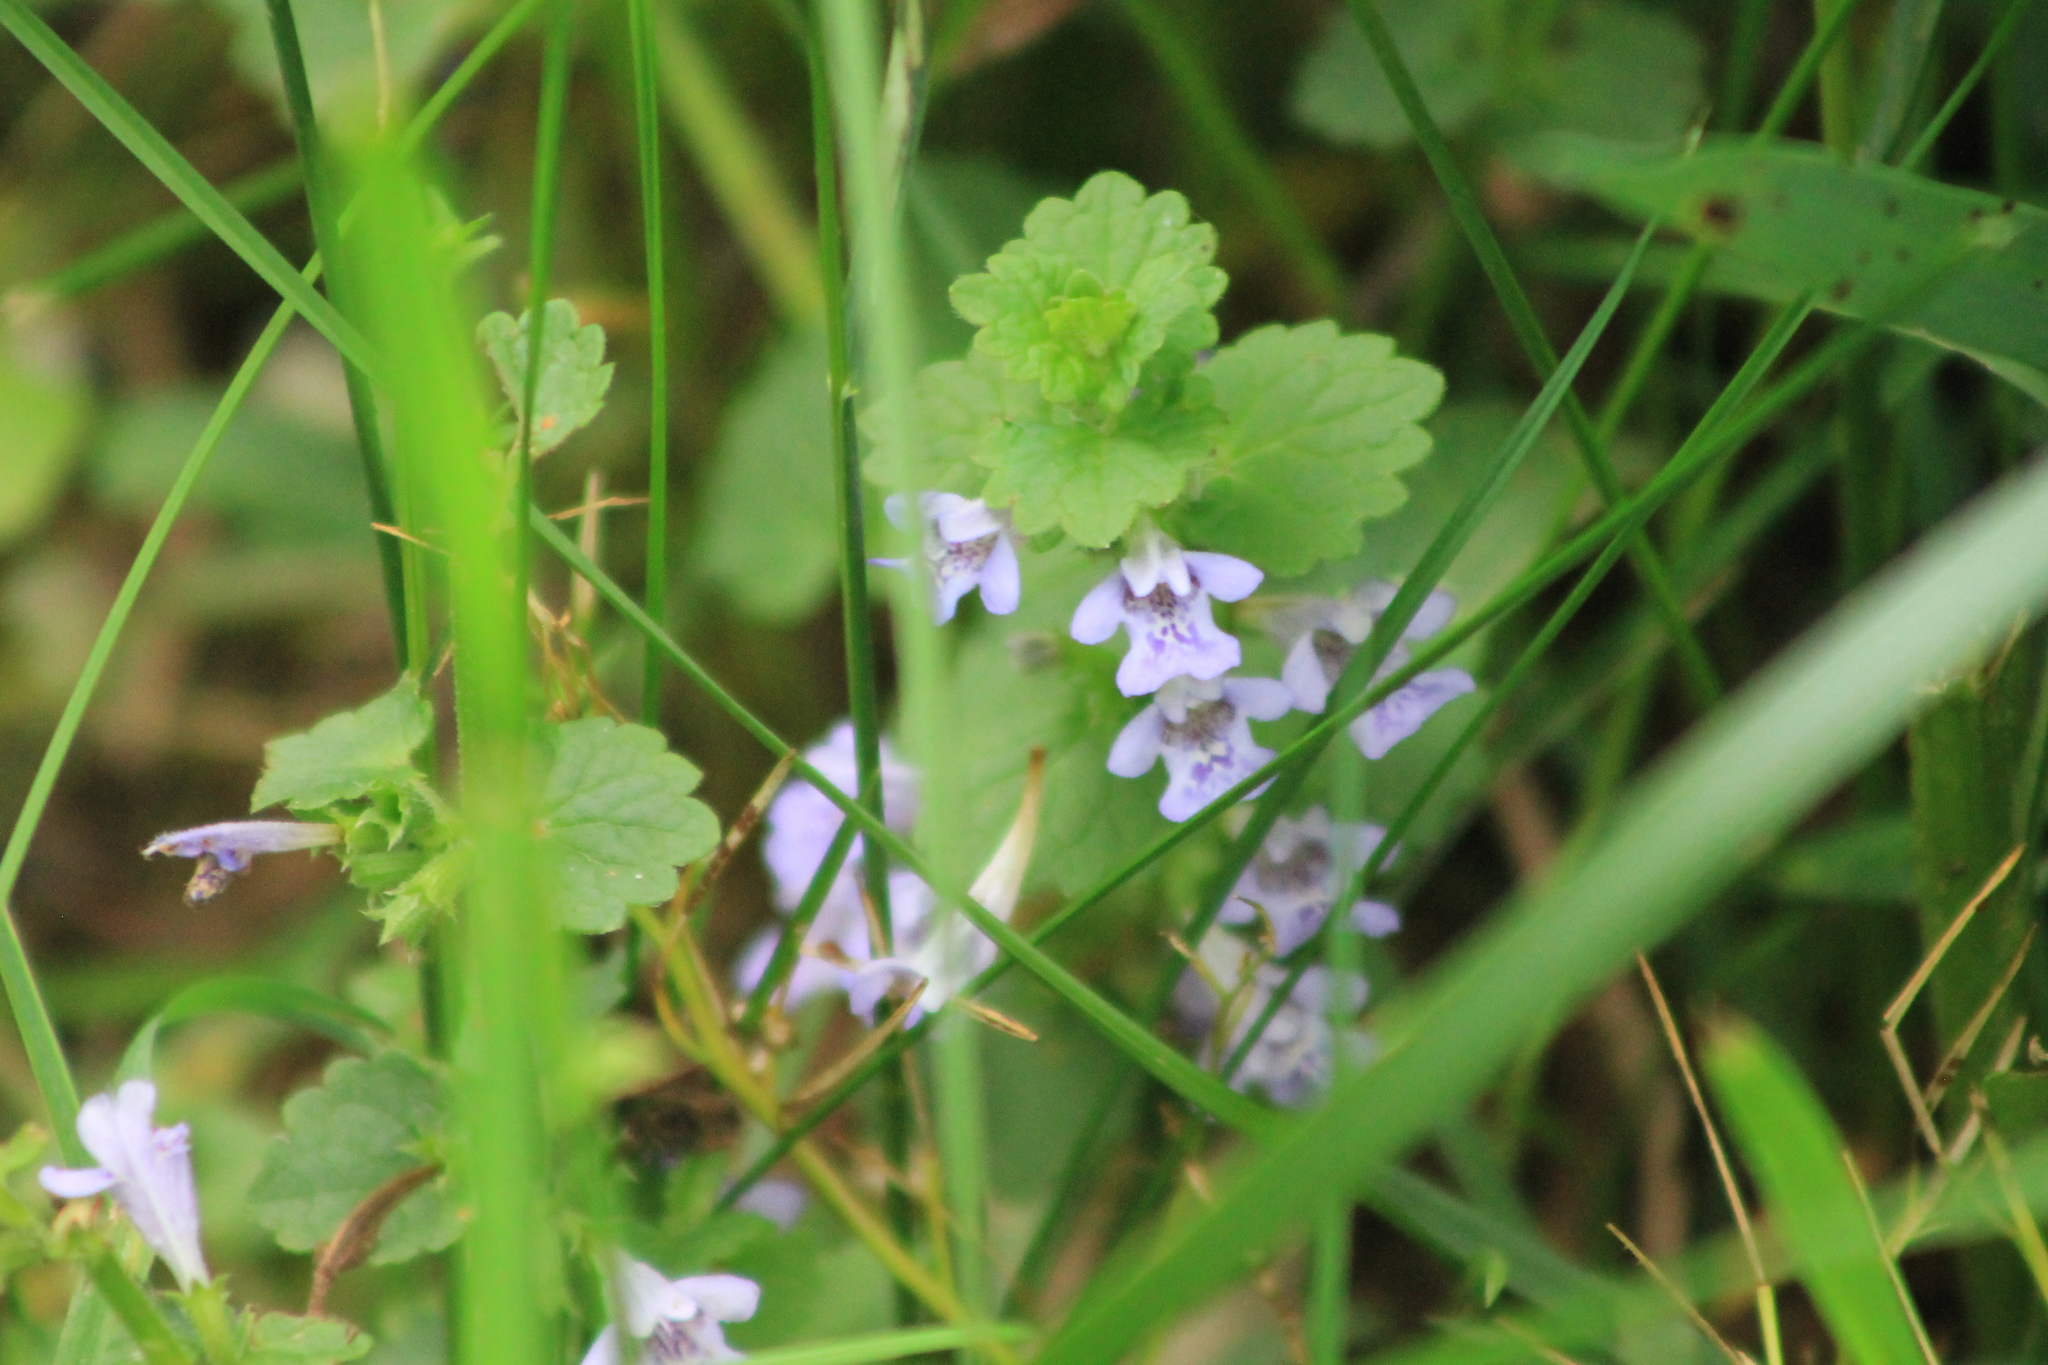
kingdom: Plantae
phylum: Tracheophyta
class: Magnoliopsida
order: Lamiales
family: Lamiaceae
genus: Glechoma
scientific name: Glechoma hederacea
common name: Ground ivy
